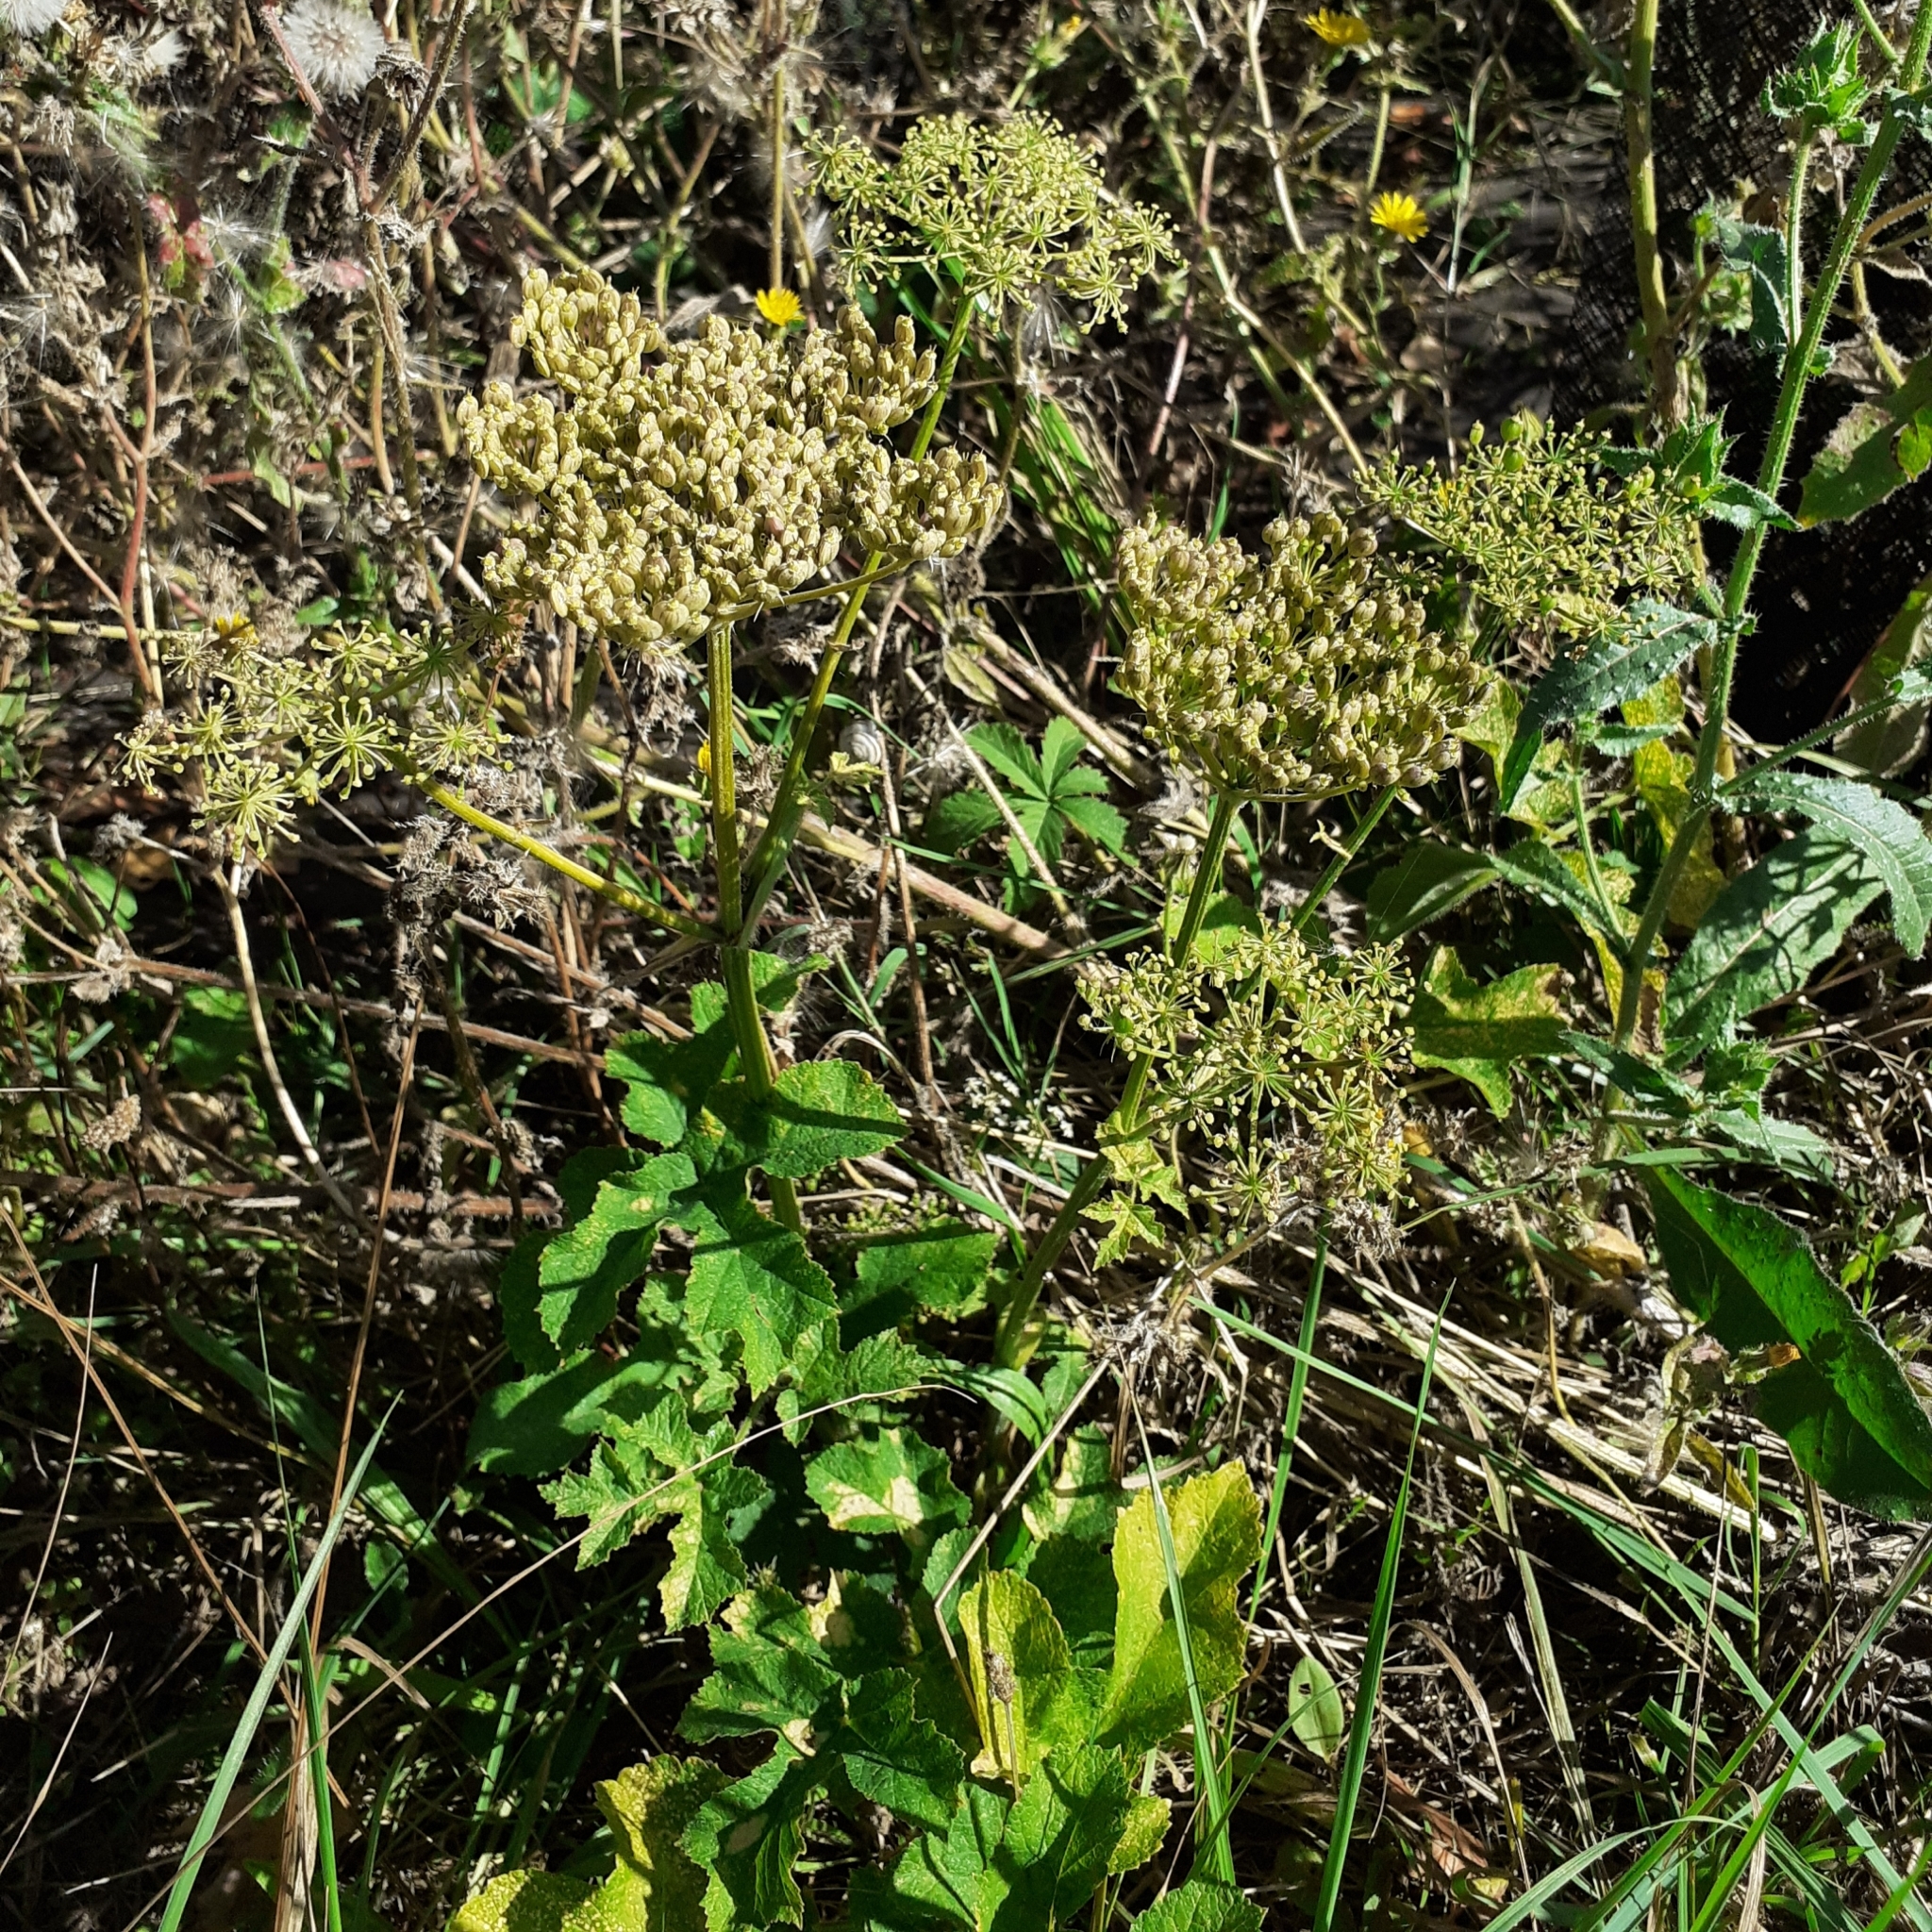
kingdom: Plantae
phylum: Tracheophyta
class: Magnoliopsida
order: Apiales
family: Apiaceae
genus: Heracleum
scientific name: Heracleum sphondylium
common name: Hogweed
